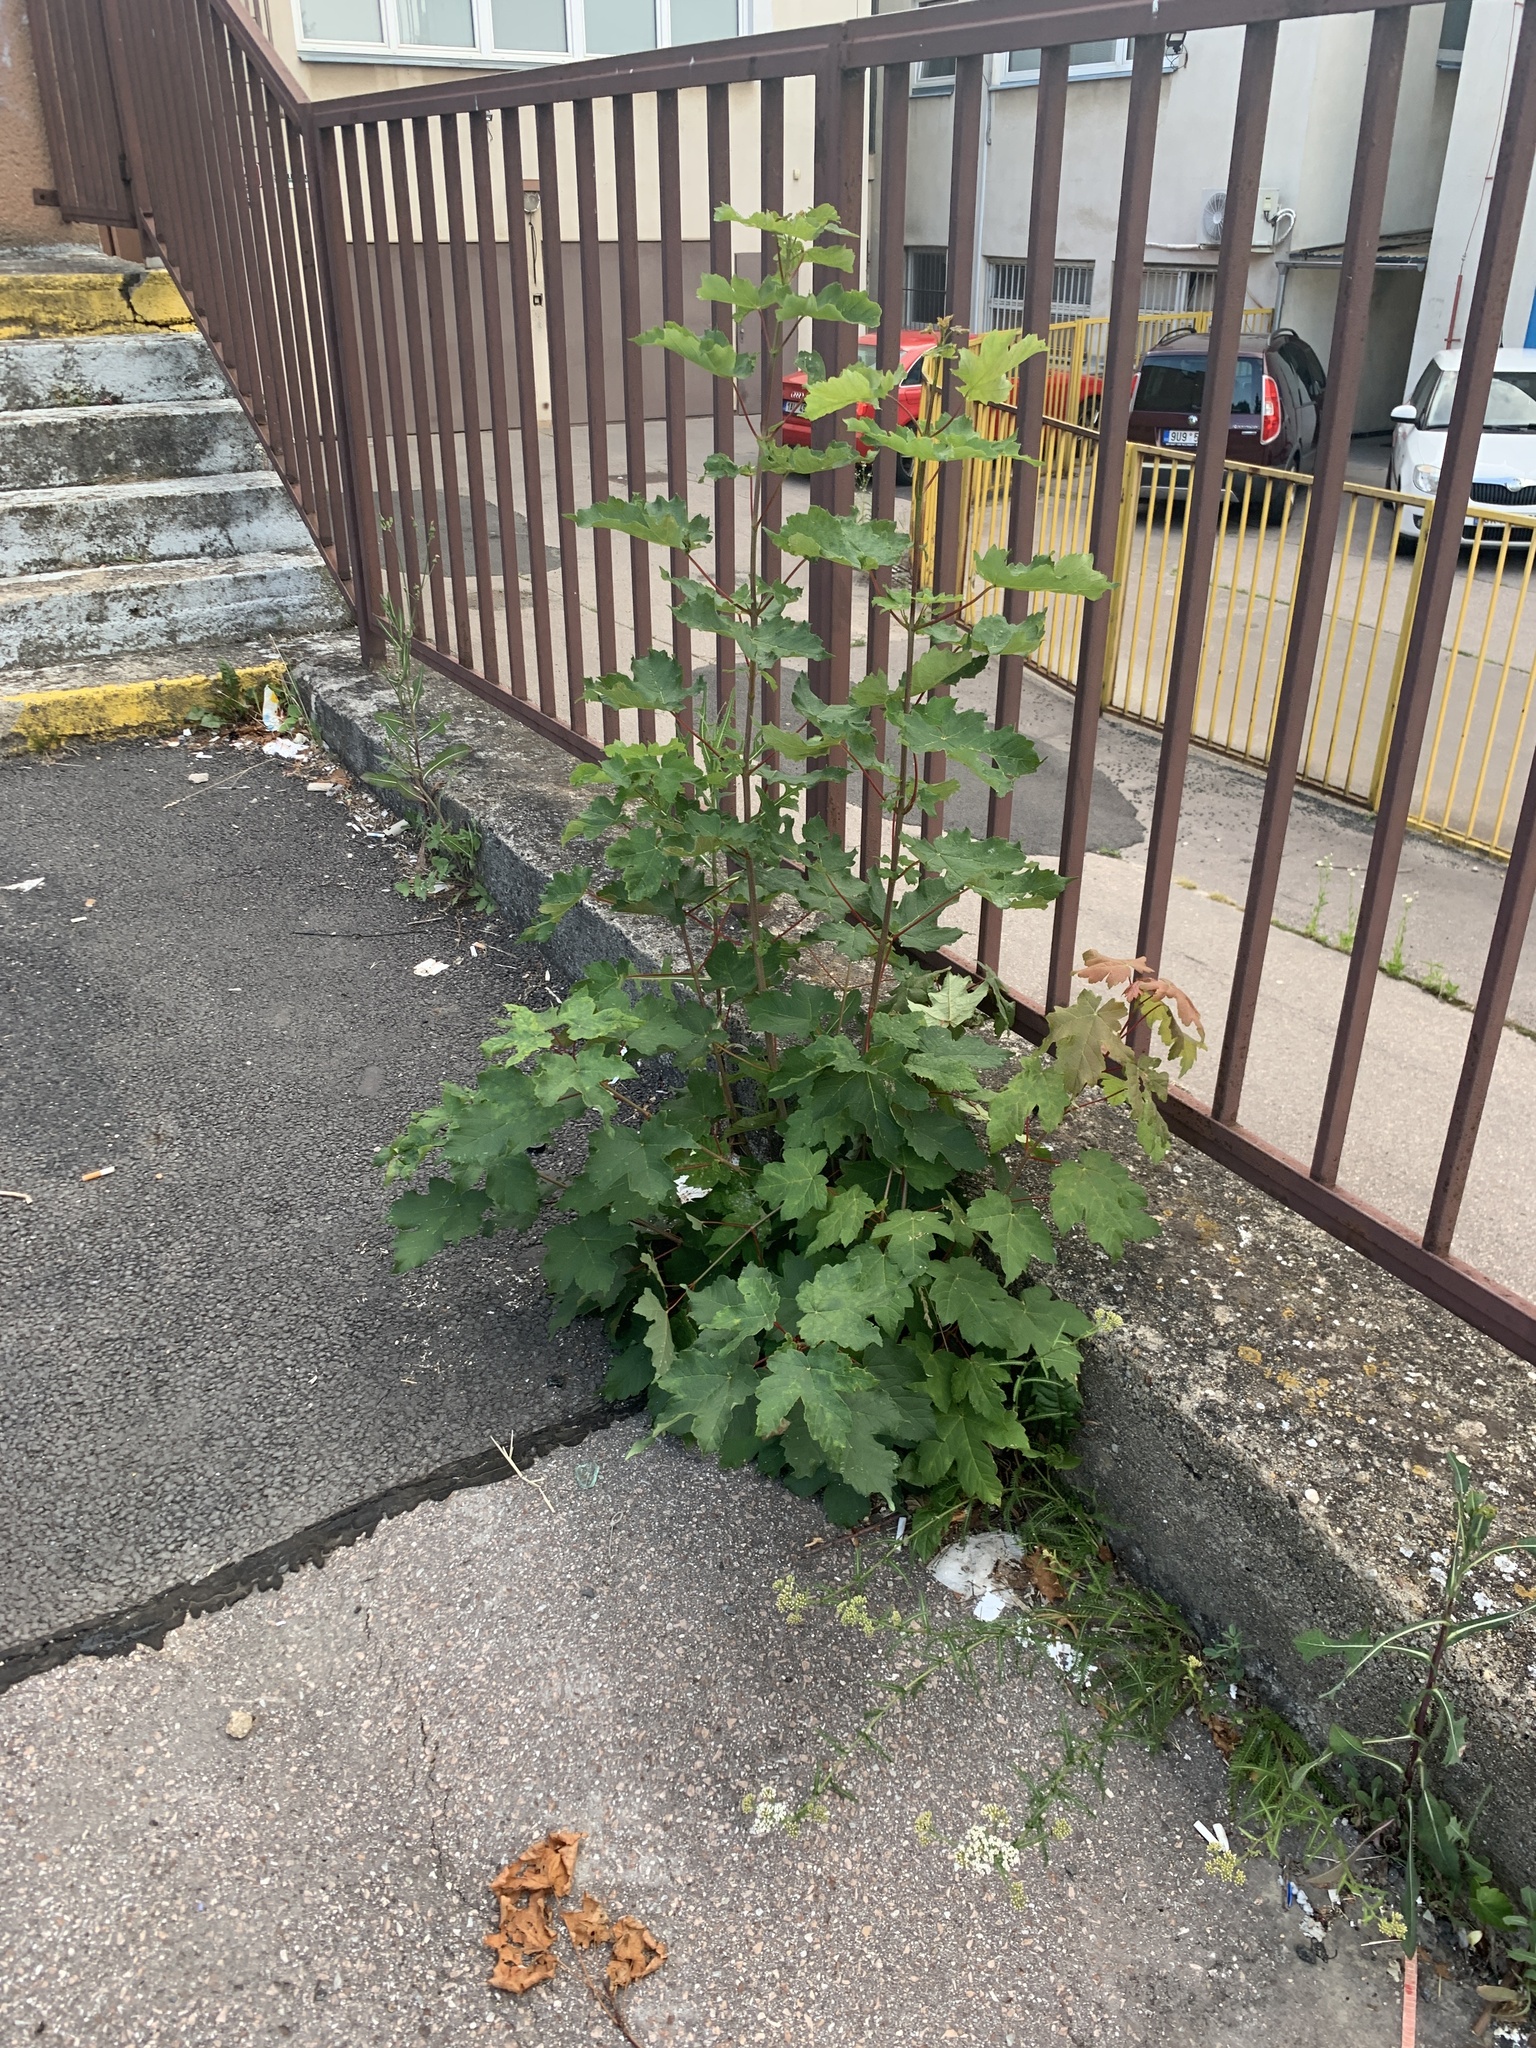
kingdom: Plantae
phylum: Tracheophyta
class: Magnoliopsida
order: Sapindales
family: Sapindaceae
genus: Acer
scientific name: Acer pseudoplatanus
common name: Sycamore
